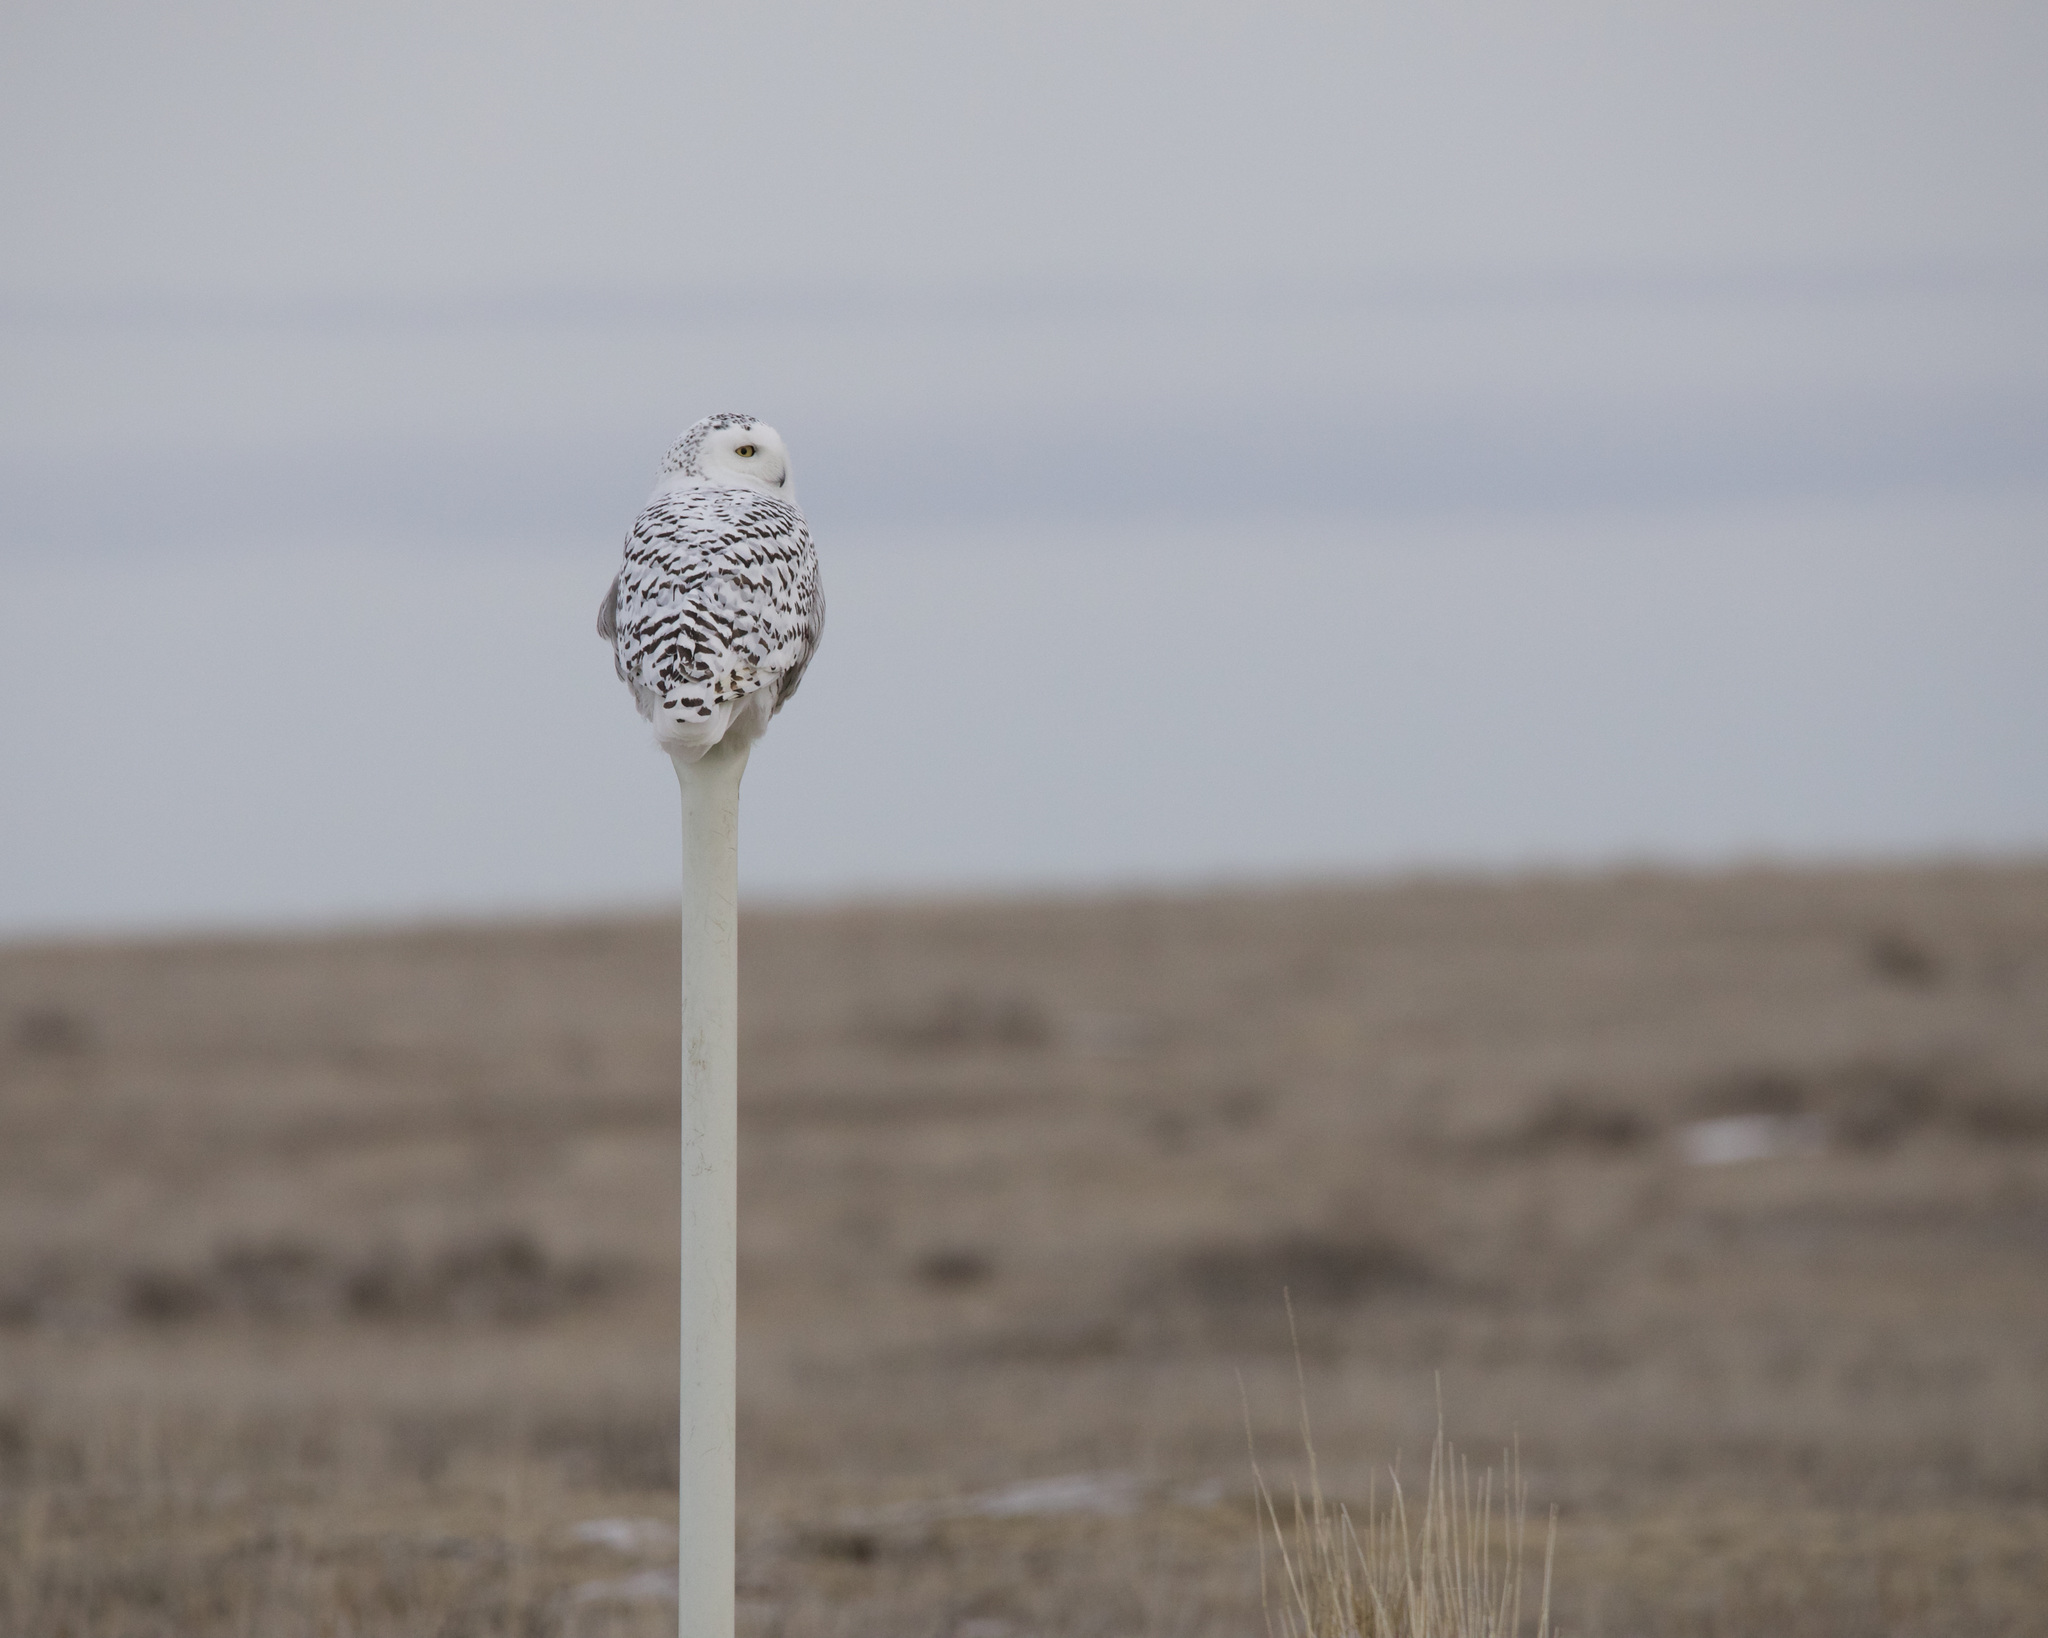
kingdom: Animalia
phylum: Chordata
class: Aves
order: Strigiformes
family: Strigidae
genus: Bubo
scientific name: Bubo scandiacus
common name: Snowy owl
